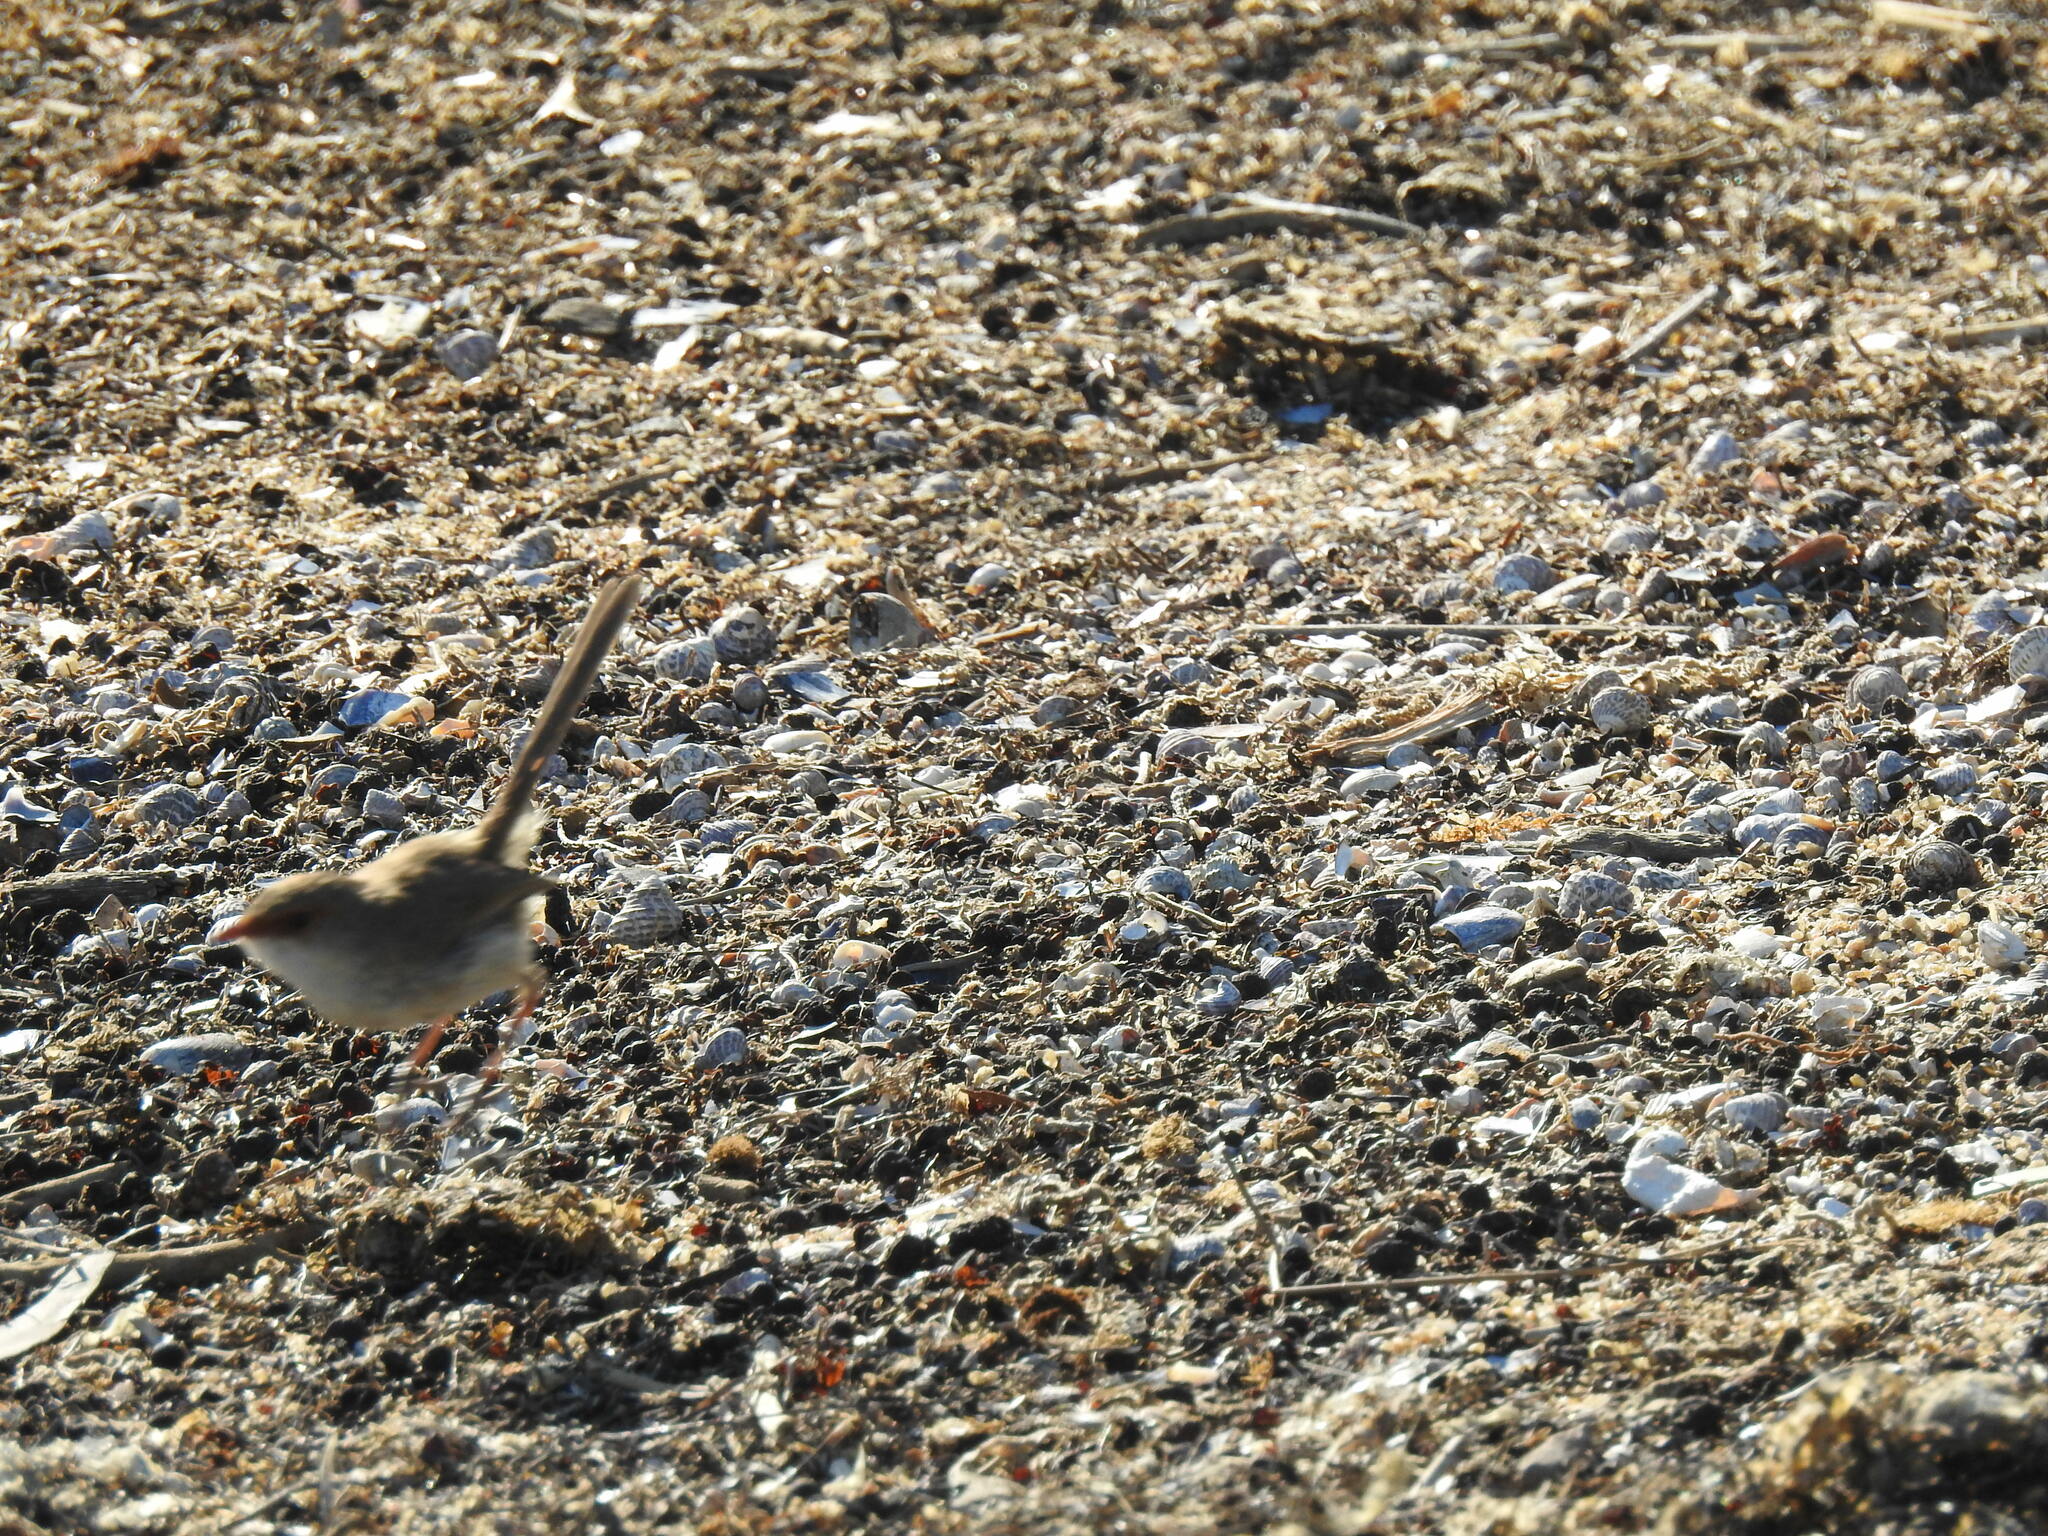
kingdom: Animalia
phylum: Chordata
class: Aves
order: Passeriformes
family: Maluridae
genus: Malurus
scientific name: Malurus cyaneus
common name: Superb fairywren
